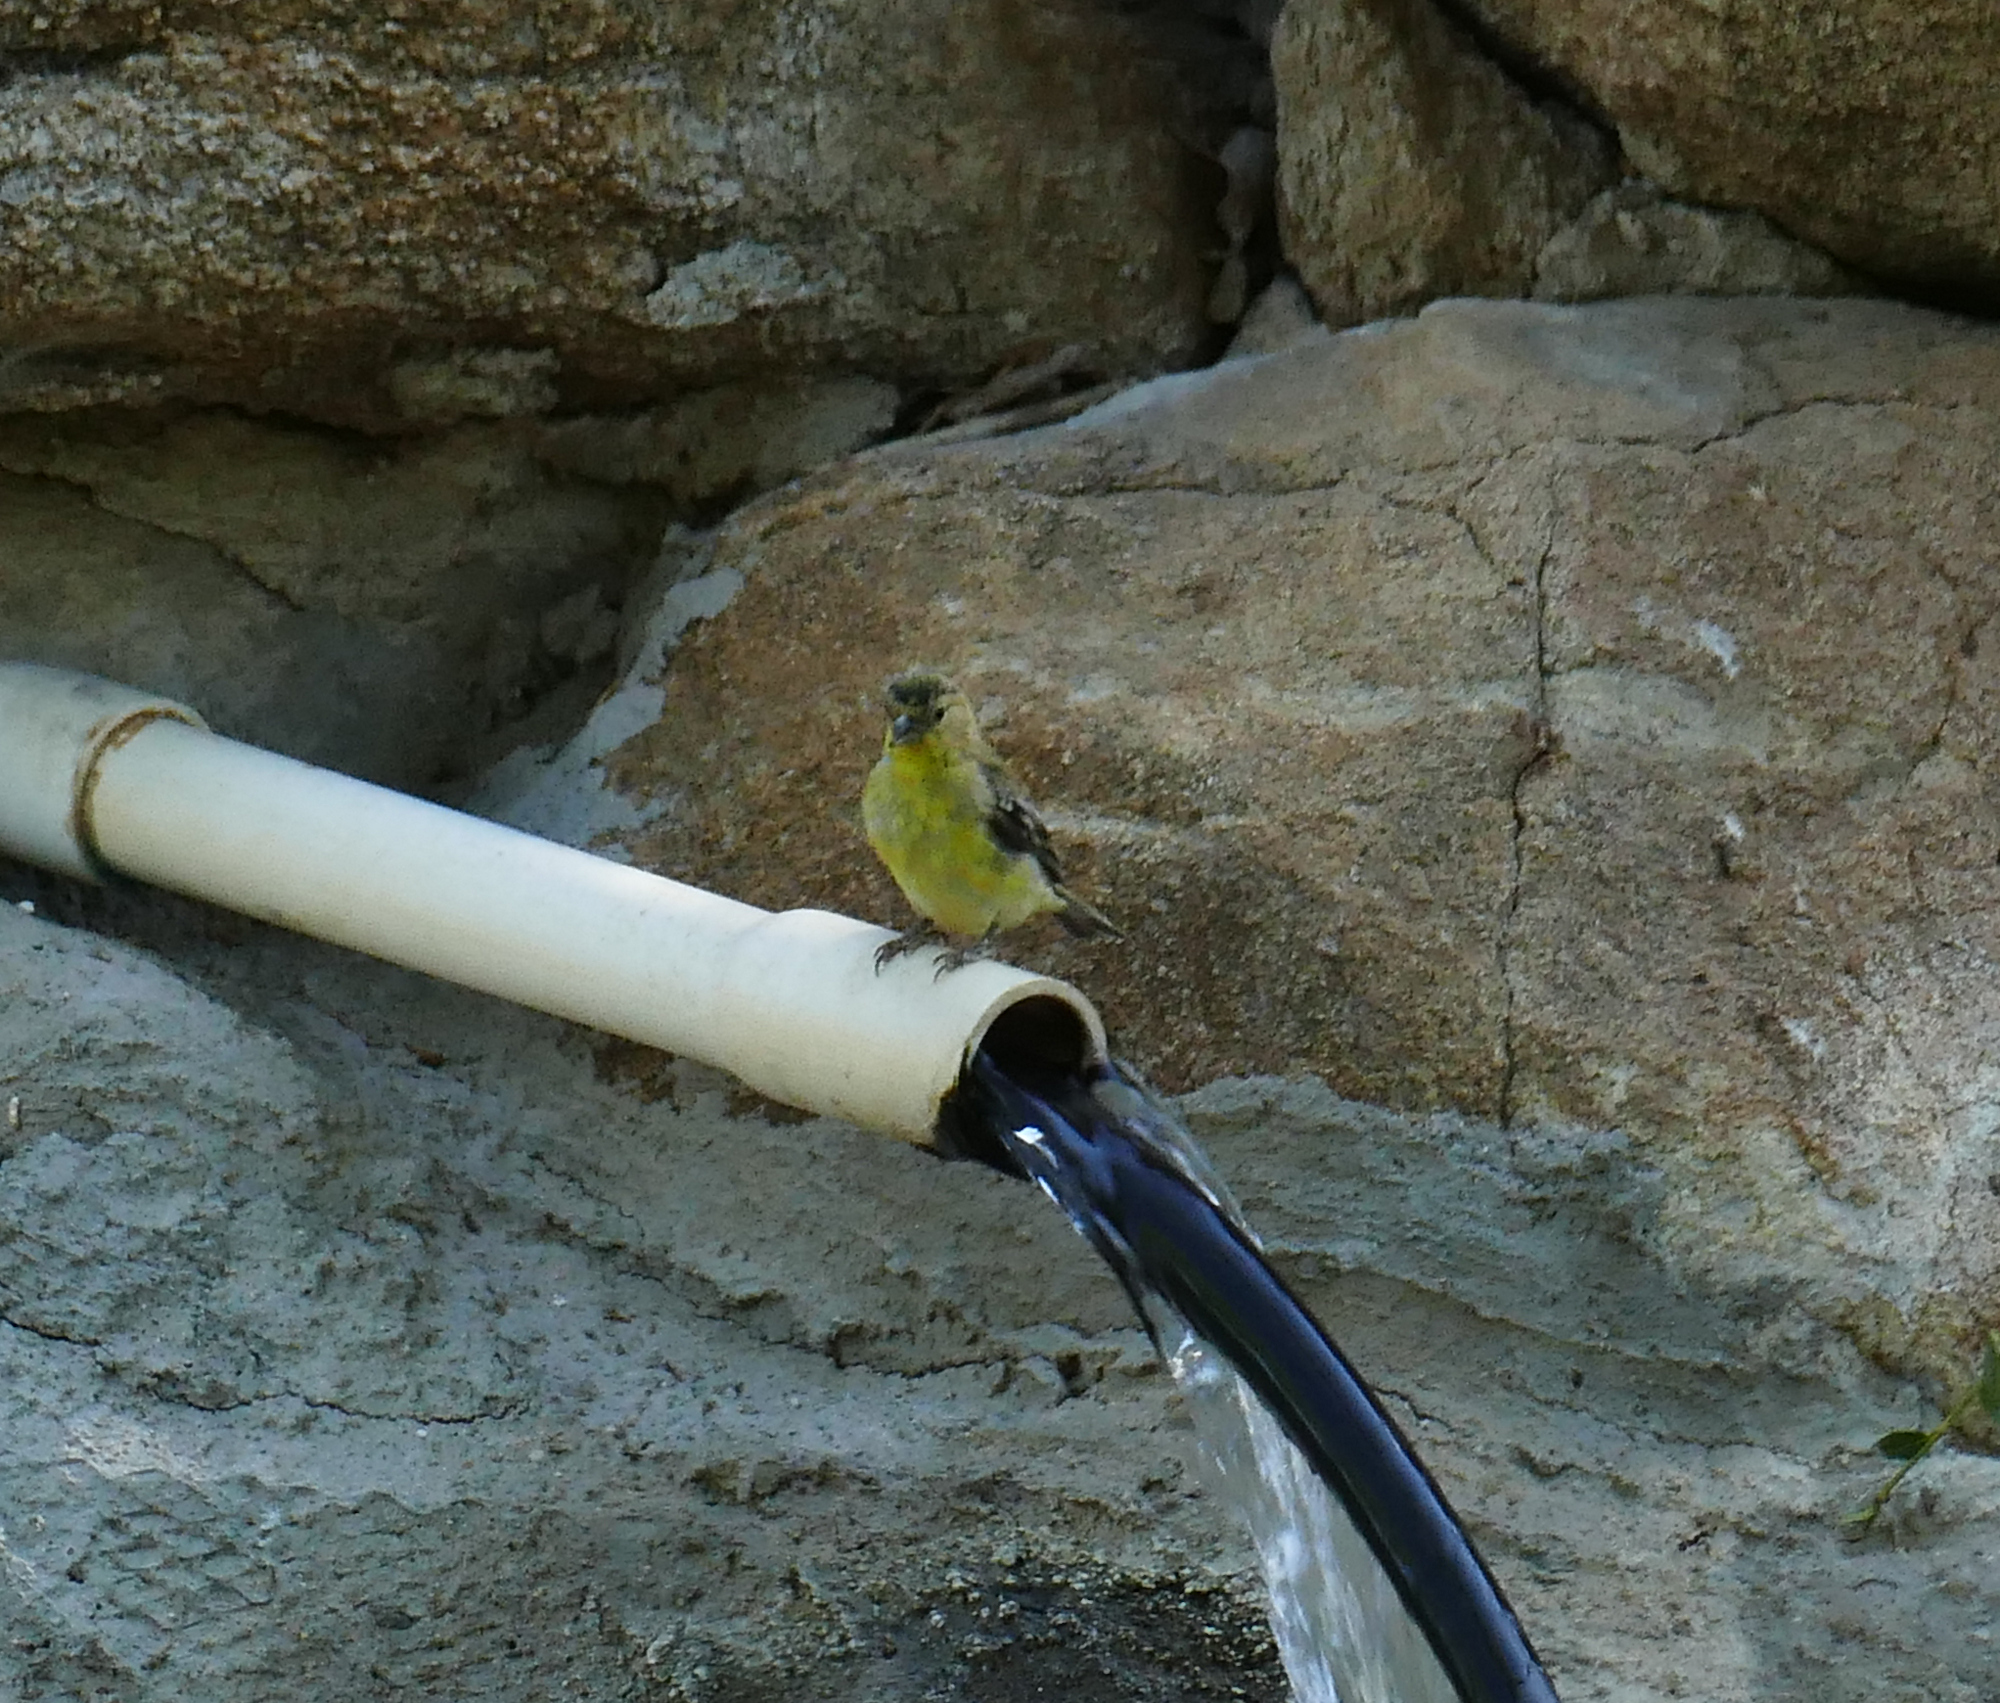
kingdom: Animalia
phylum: Chordata
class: Aves
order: Passeriformes
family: Fringillidae
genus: Spinus
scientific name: Spinus psaltria
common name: Lesser goldfinch
